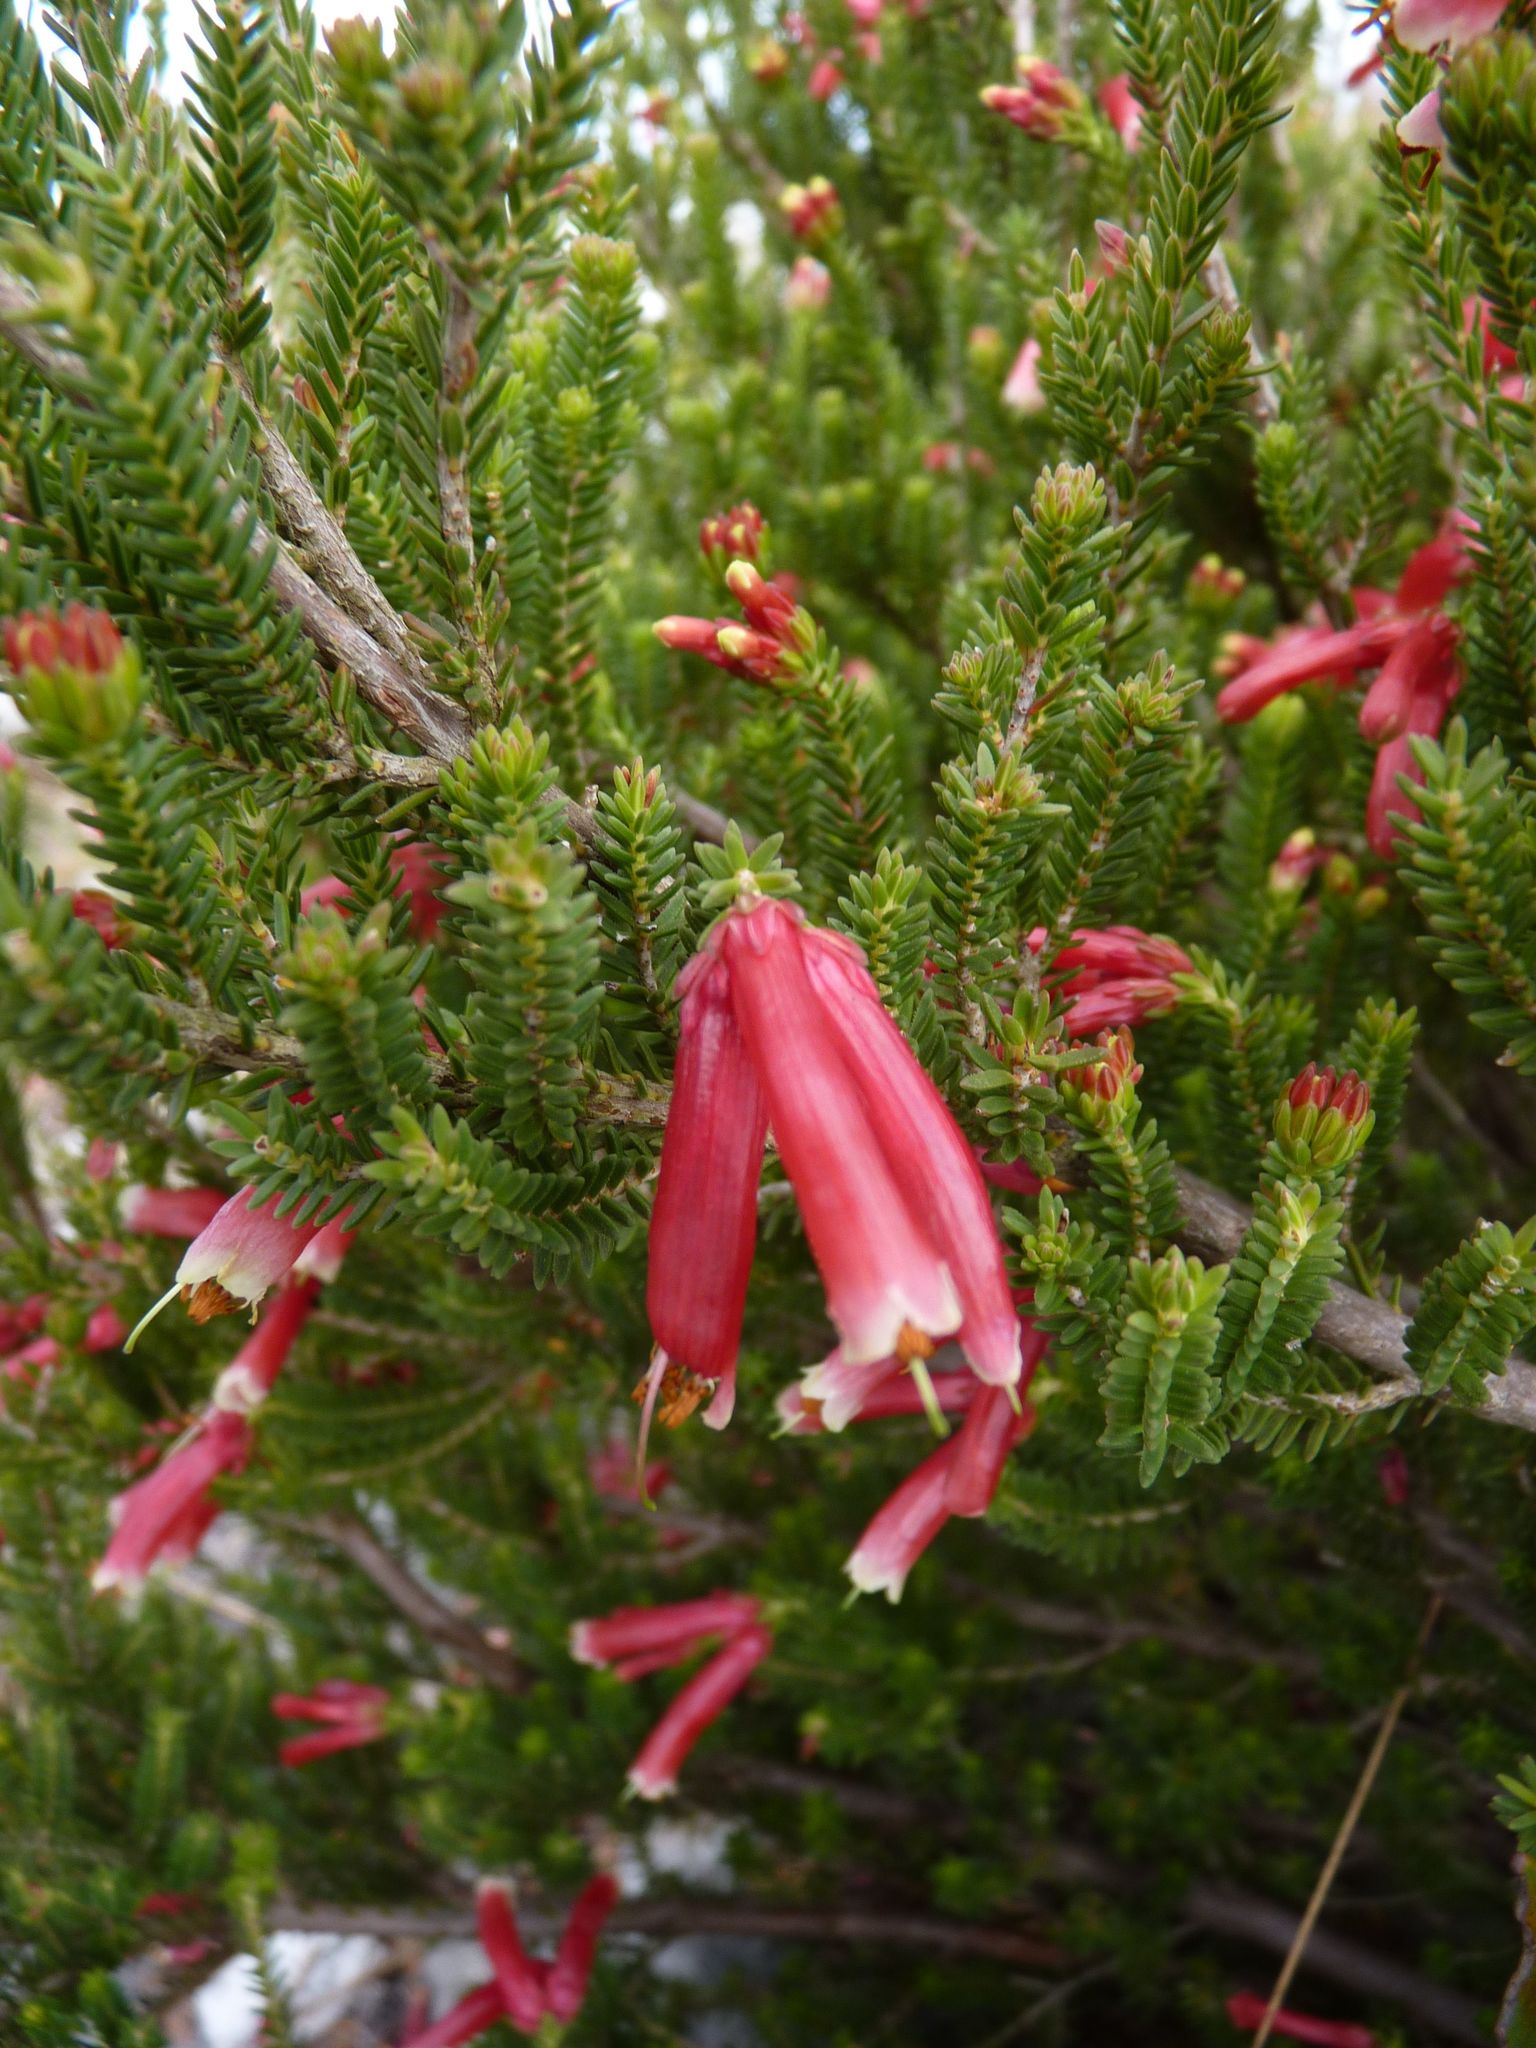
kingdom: Plantae
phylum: Tracheophyta
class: Magnoliopsida
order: Ericales
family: Ericaceae
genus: Erica
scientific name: Erica versicolor
